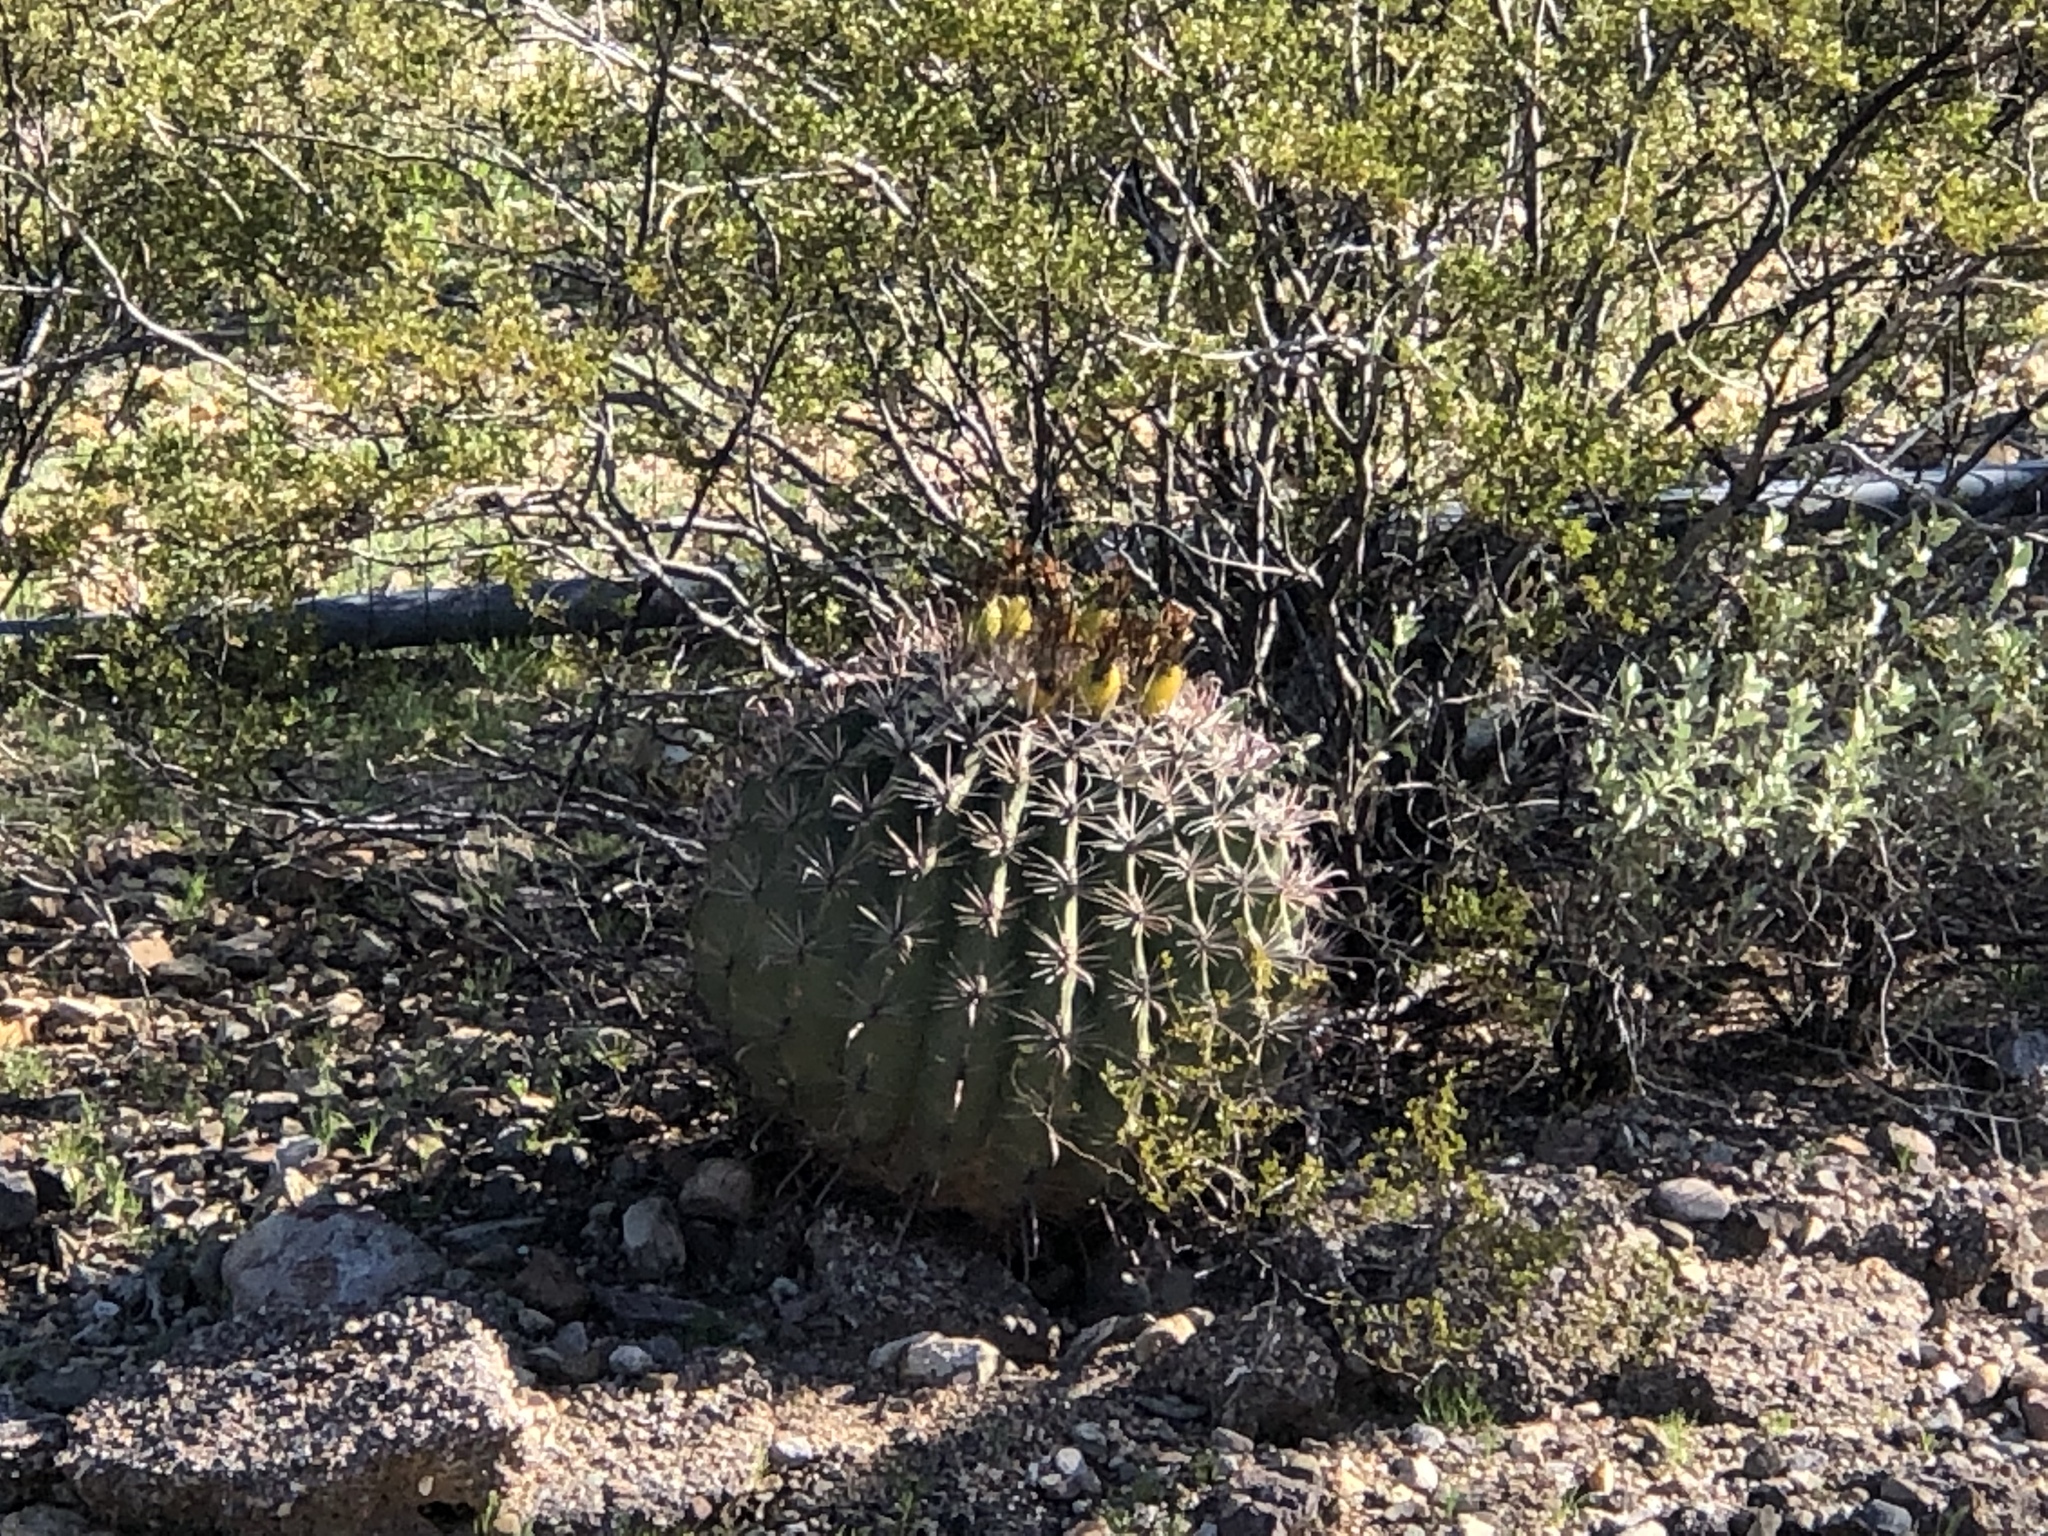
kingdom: Plantae
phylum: Tracheophyta
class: Magnoliopsida
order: Caryophyllales
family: Cactaceae
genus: Ferocactus
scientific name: Ferocactus wislizeni
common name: Candy barrel cactus
